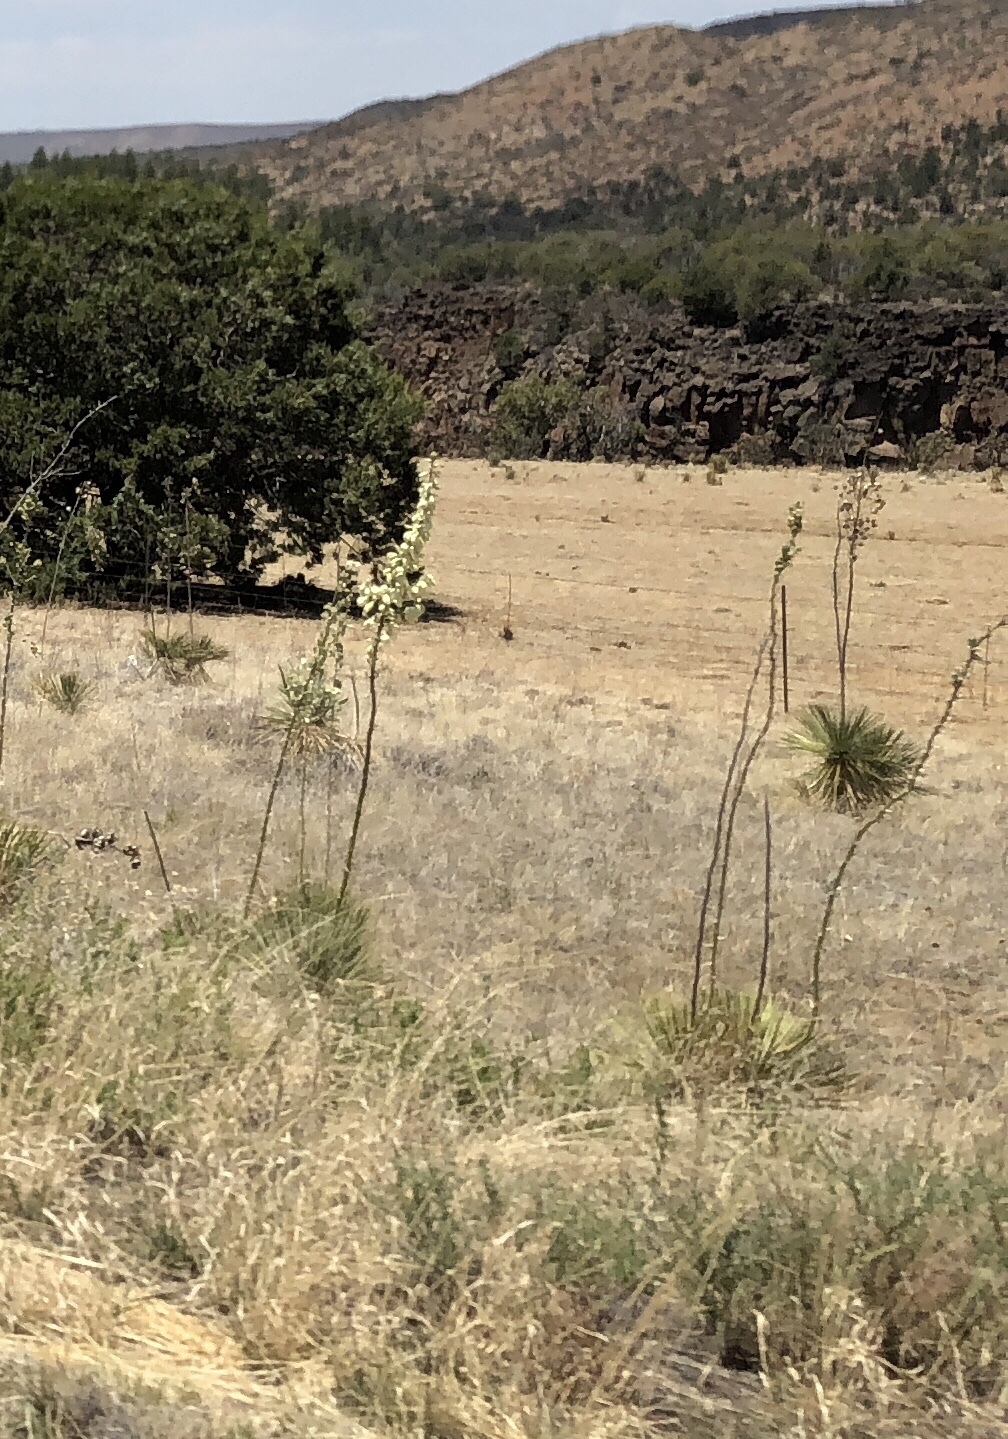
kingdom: Plantae
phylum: Tracheophyta
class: Liliopsida
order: Asparagales
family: Asparagaceae
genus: Yucca
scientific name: Yucca elata
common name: Palmella
